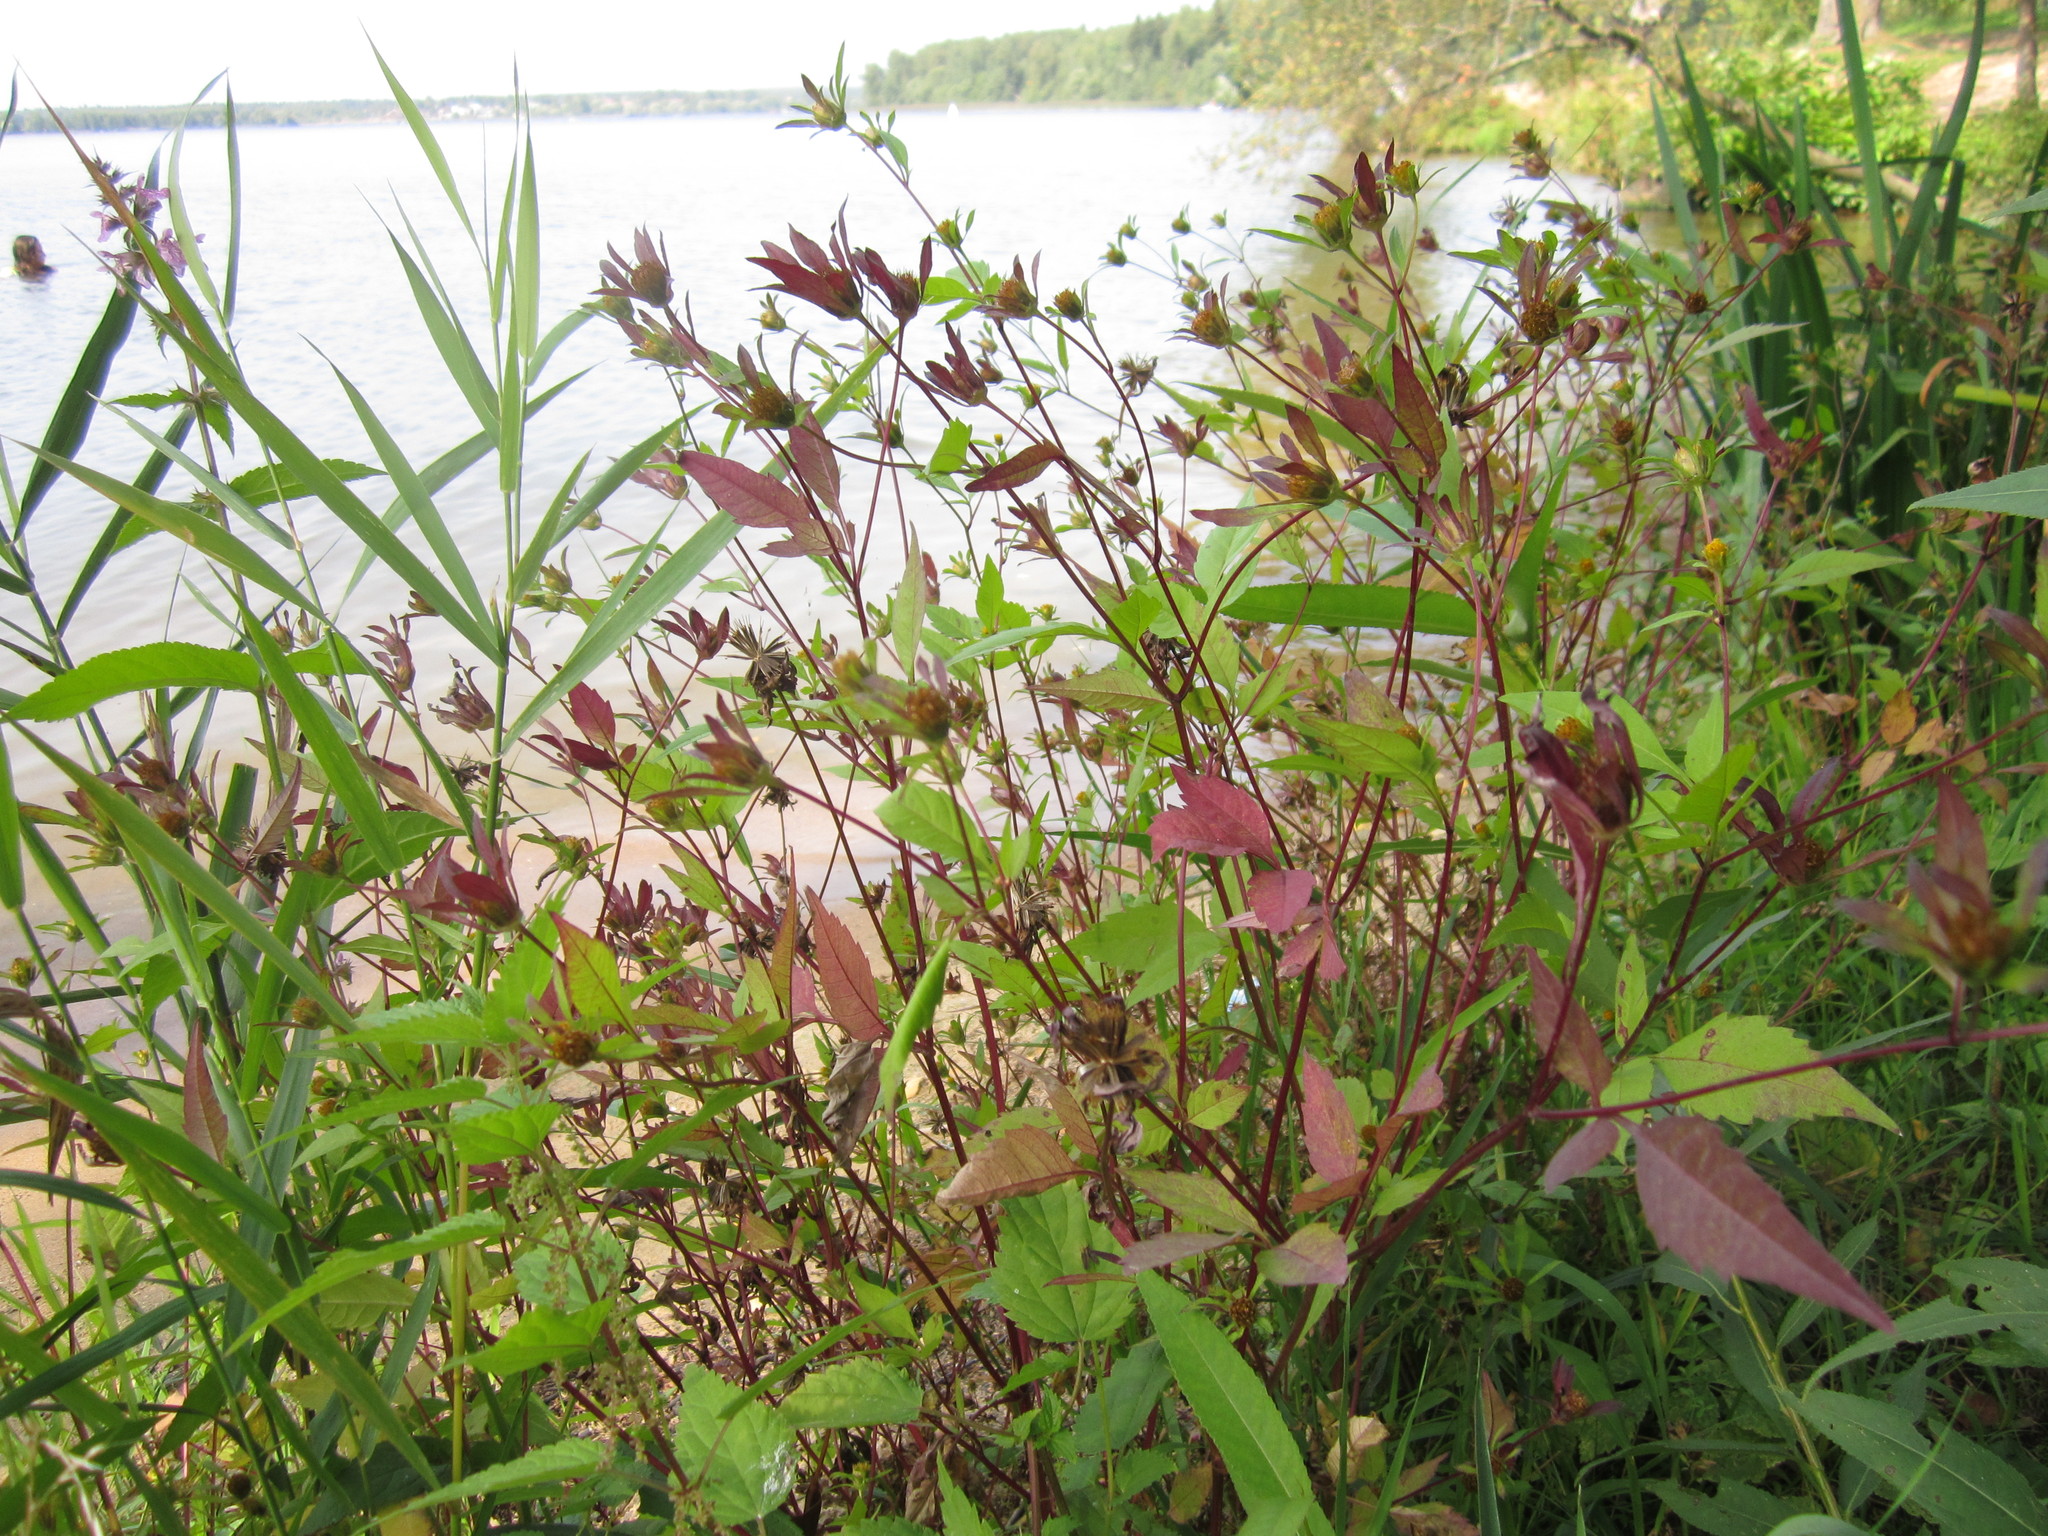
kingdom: Plantae
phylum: Tracheophyta
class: Magnoliopsida
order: Asterales
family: Asteraceae
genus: Bidens
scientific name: Bidens frondosa
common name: Beggarticks
